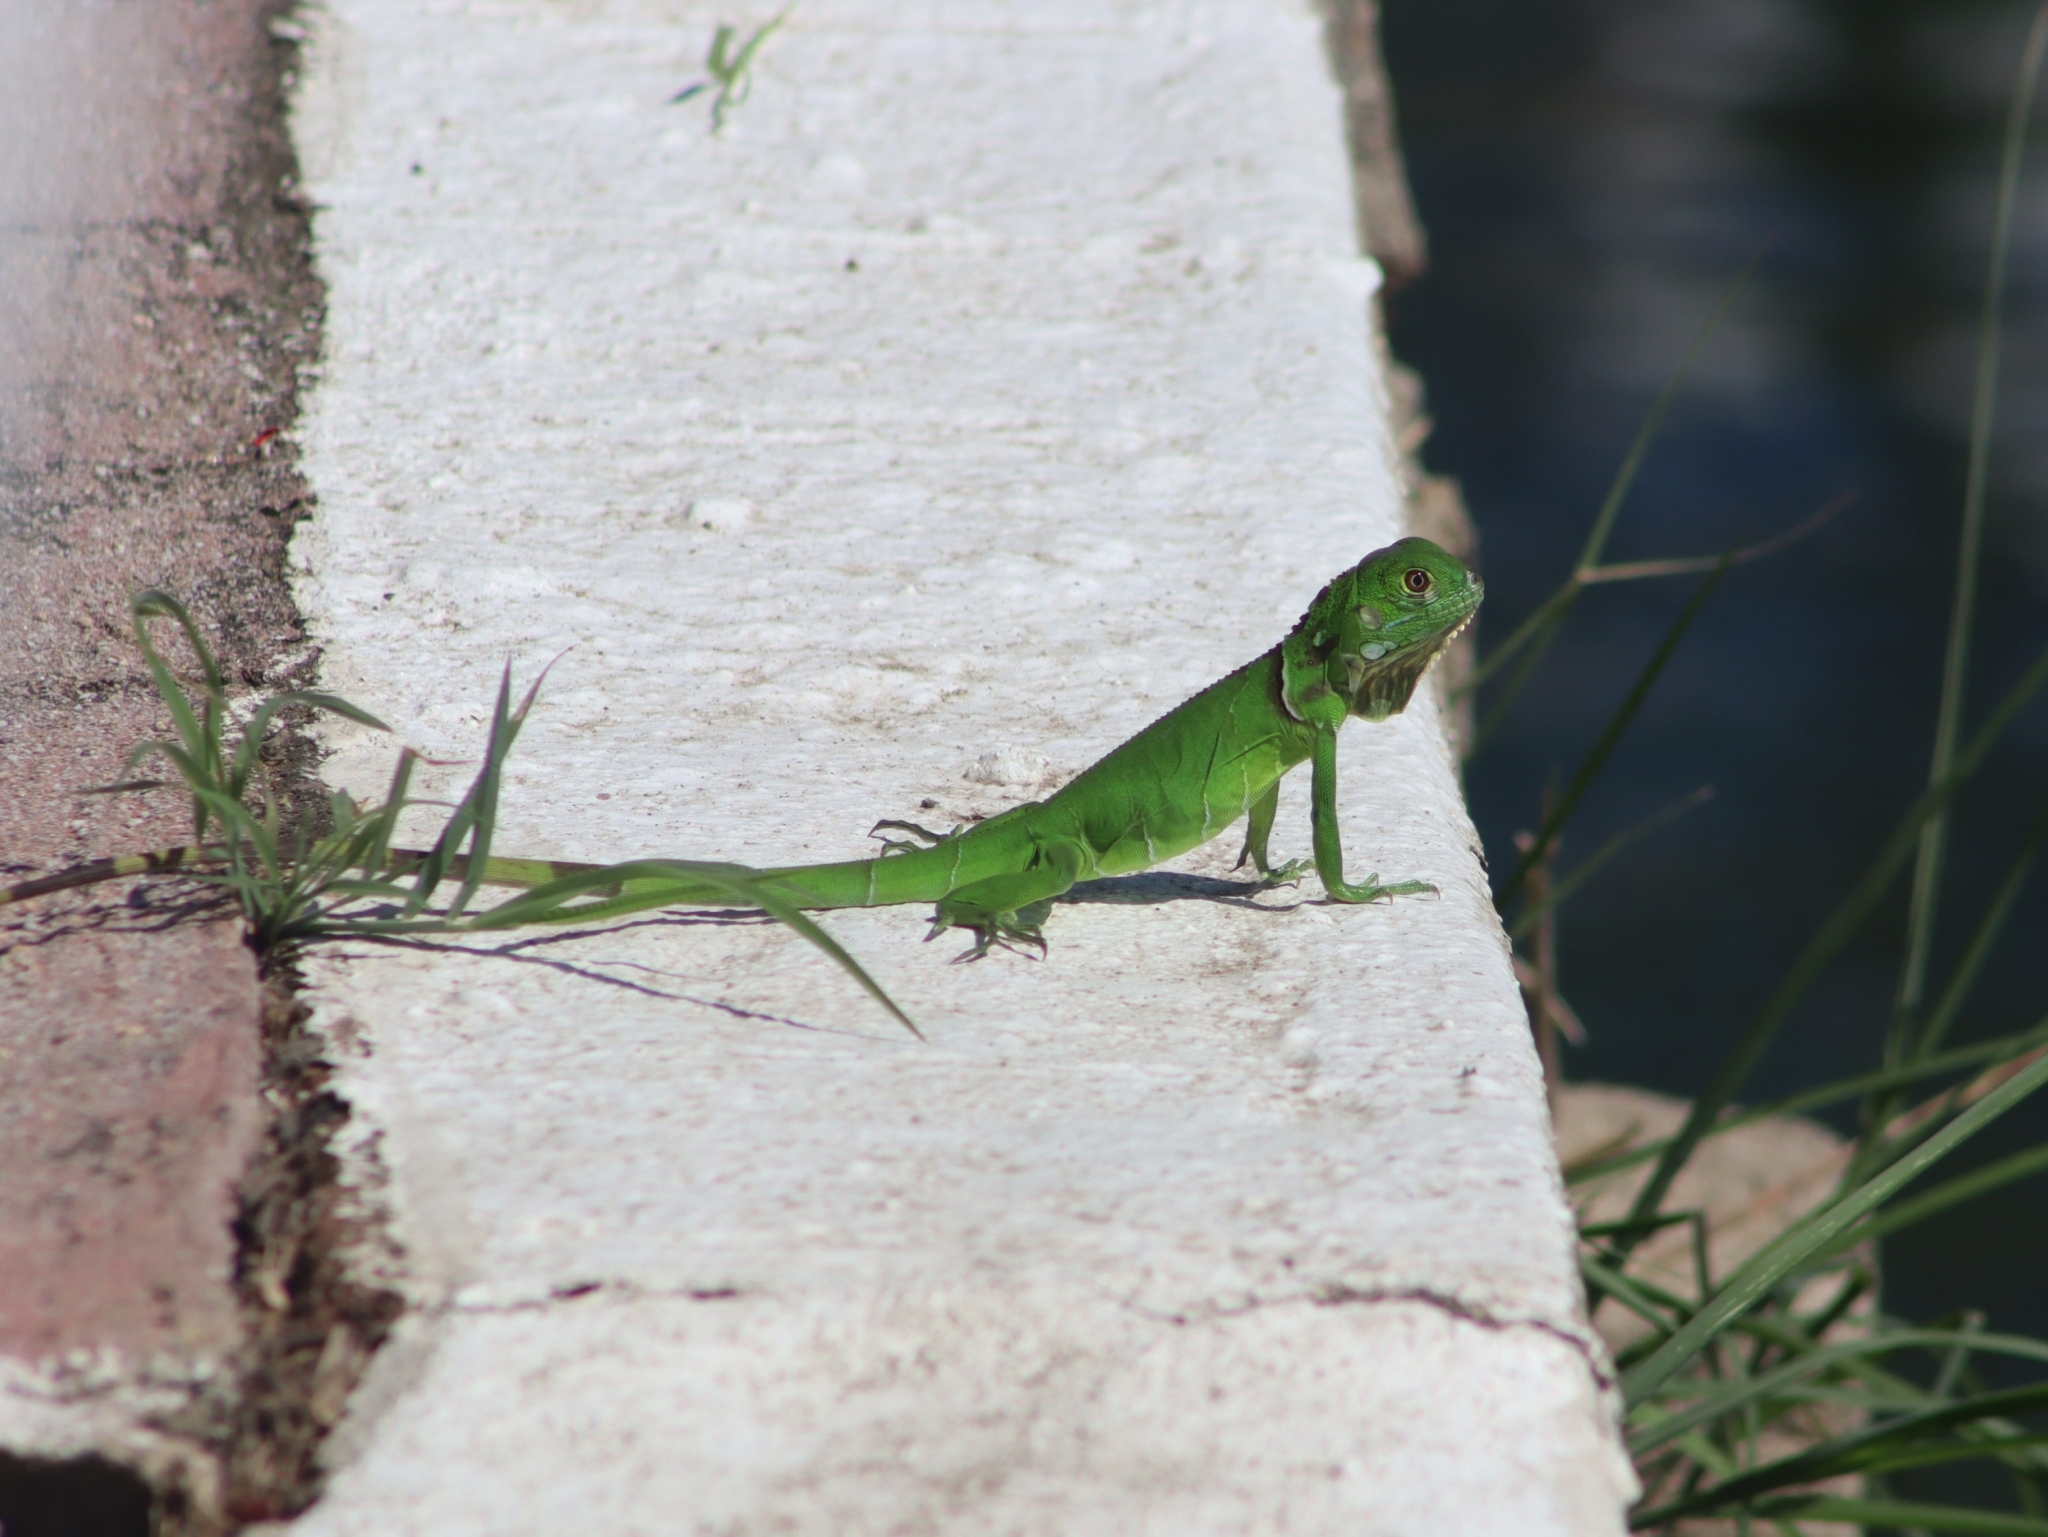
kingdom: Animalia
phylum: Chordata
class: Squamata
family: Iguanidae
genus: Iguana
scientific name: Iguana iguana
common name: Green iguana
